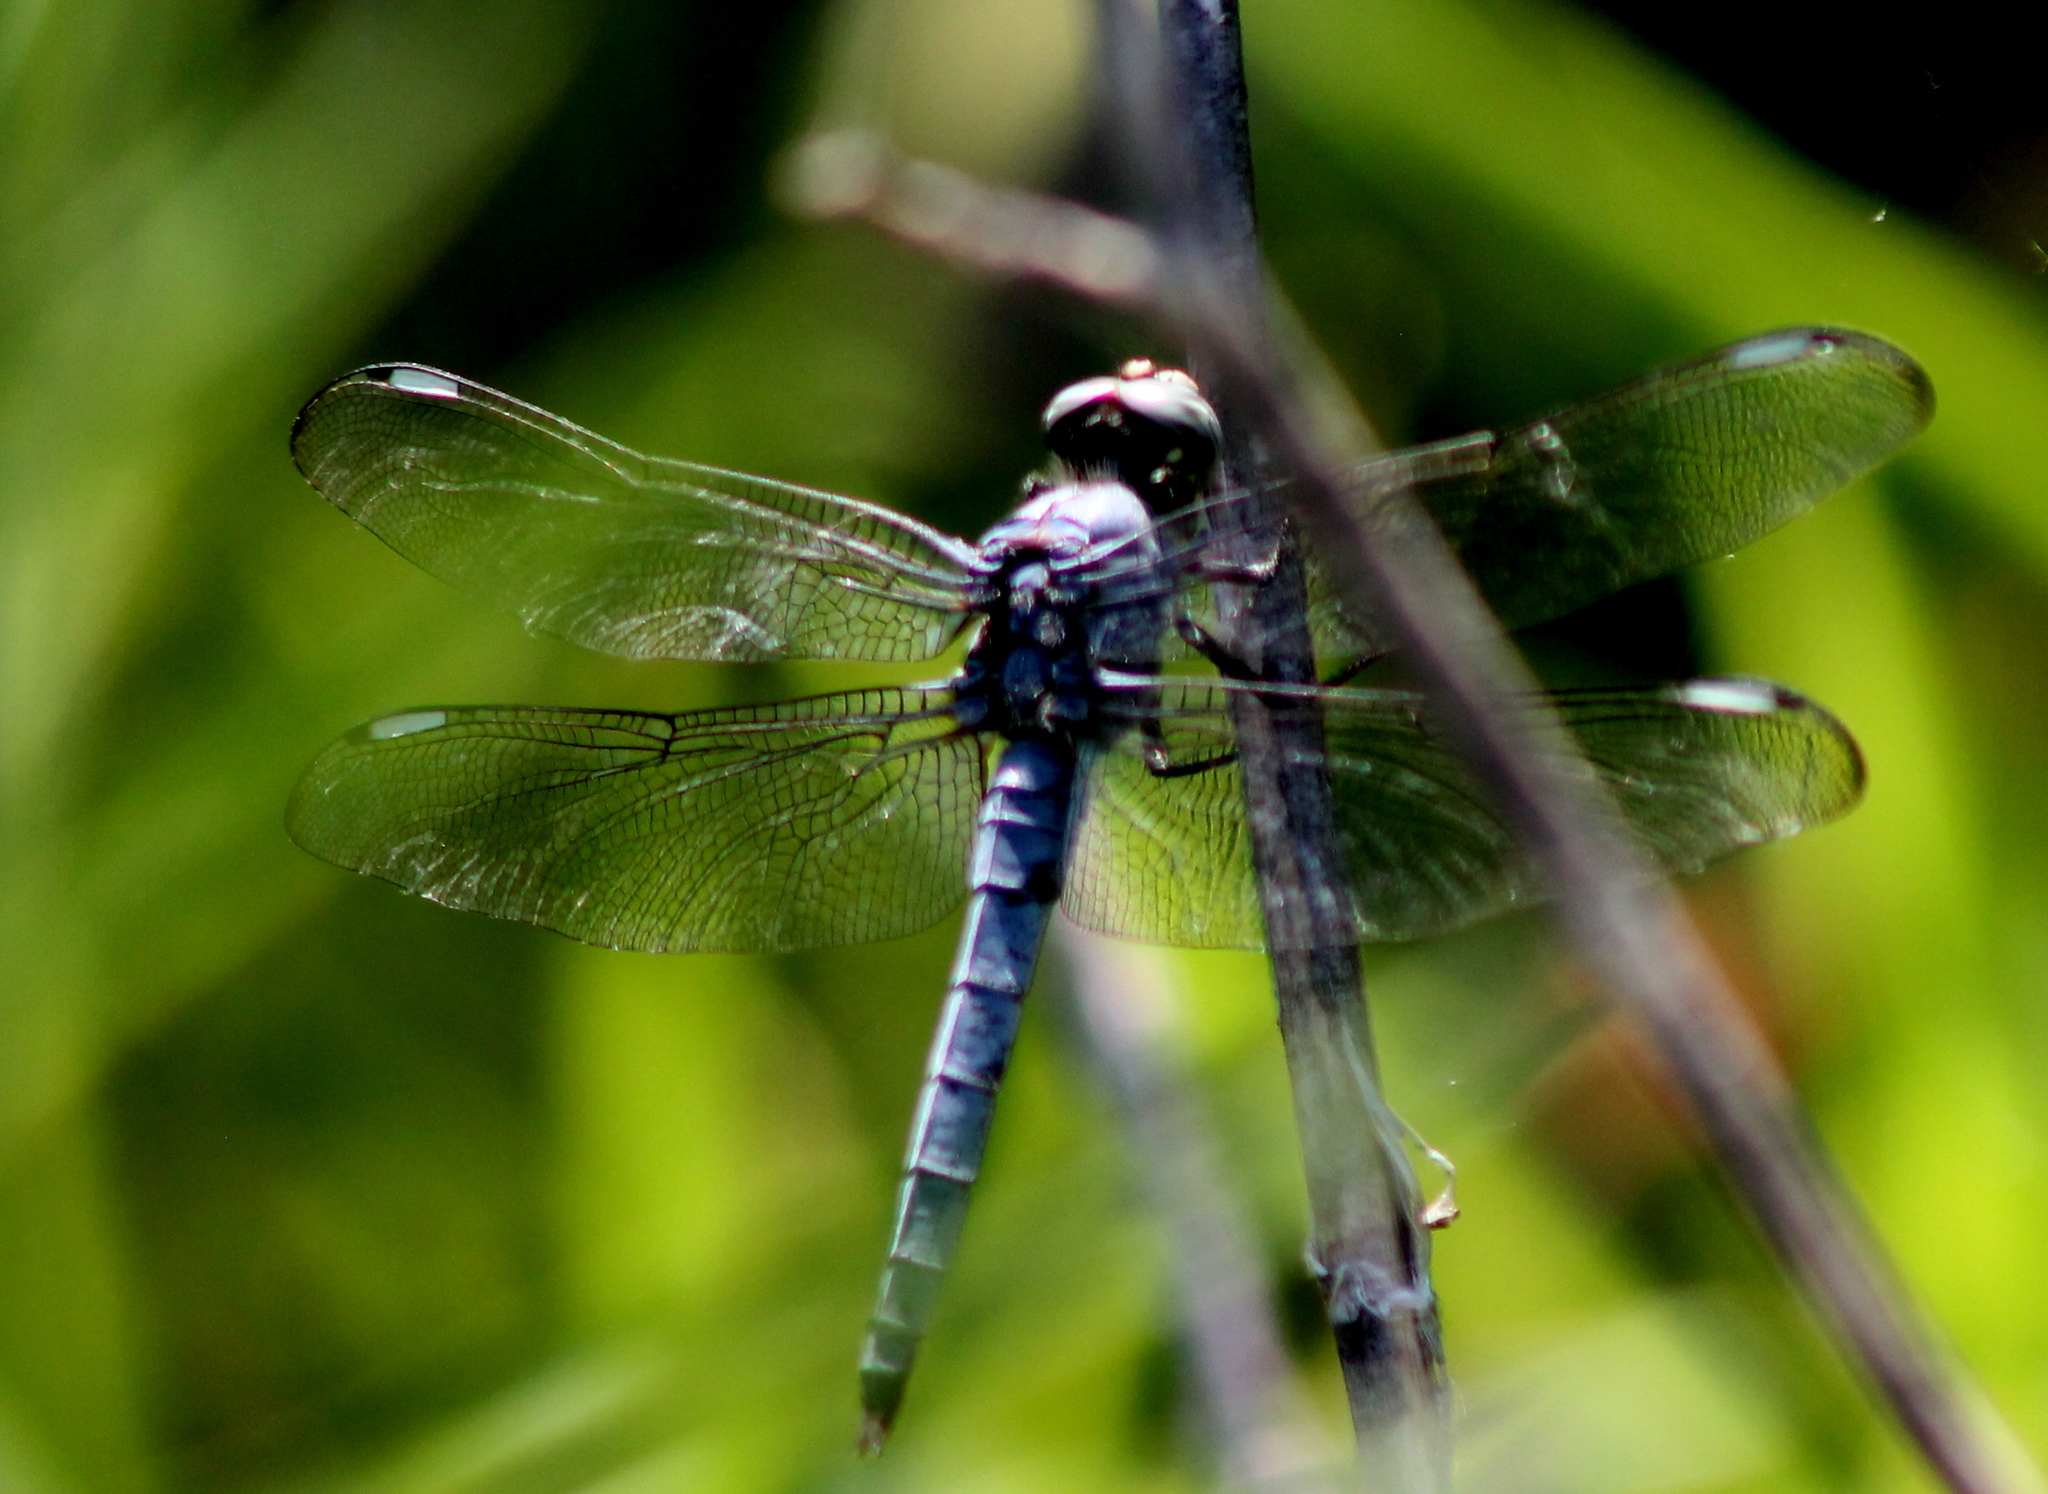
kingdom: Animalia
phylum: Arthropoda
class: Insecta
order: Odonata
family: Libellulidae
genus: Libellula
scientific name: Libellula comanche
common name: Comanche skimmer
